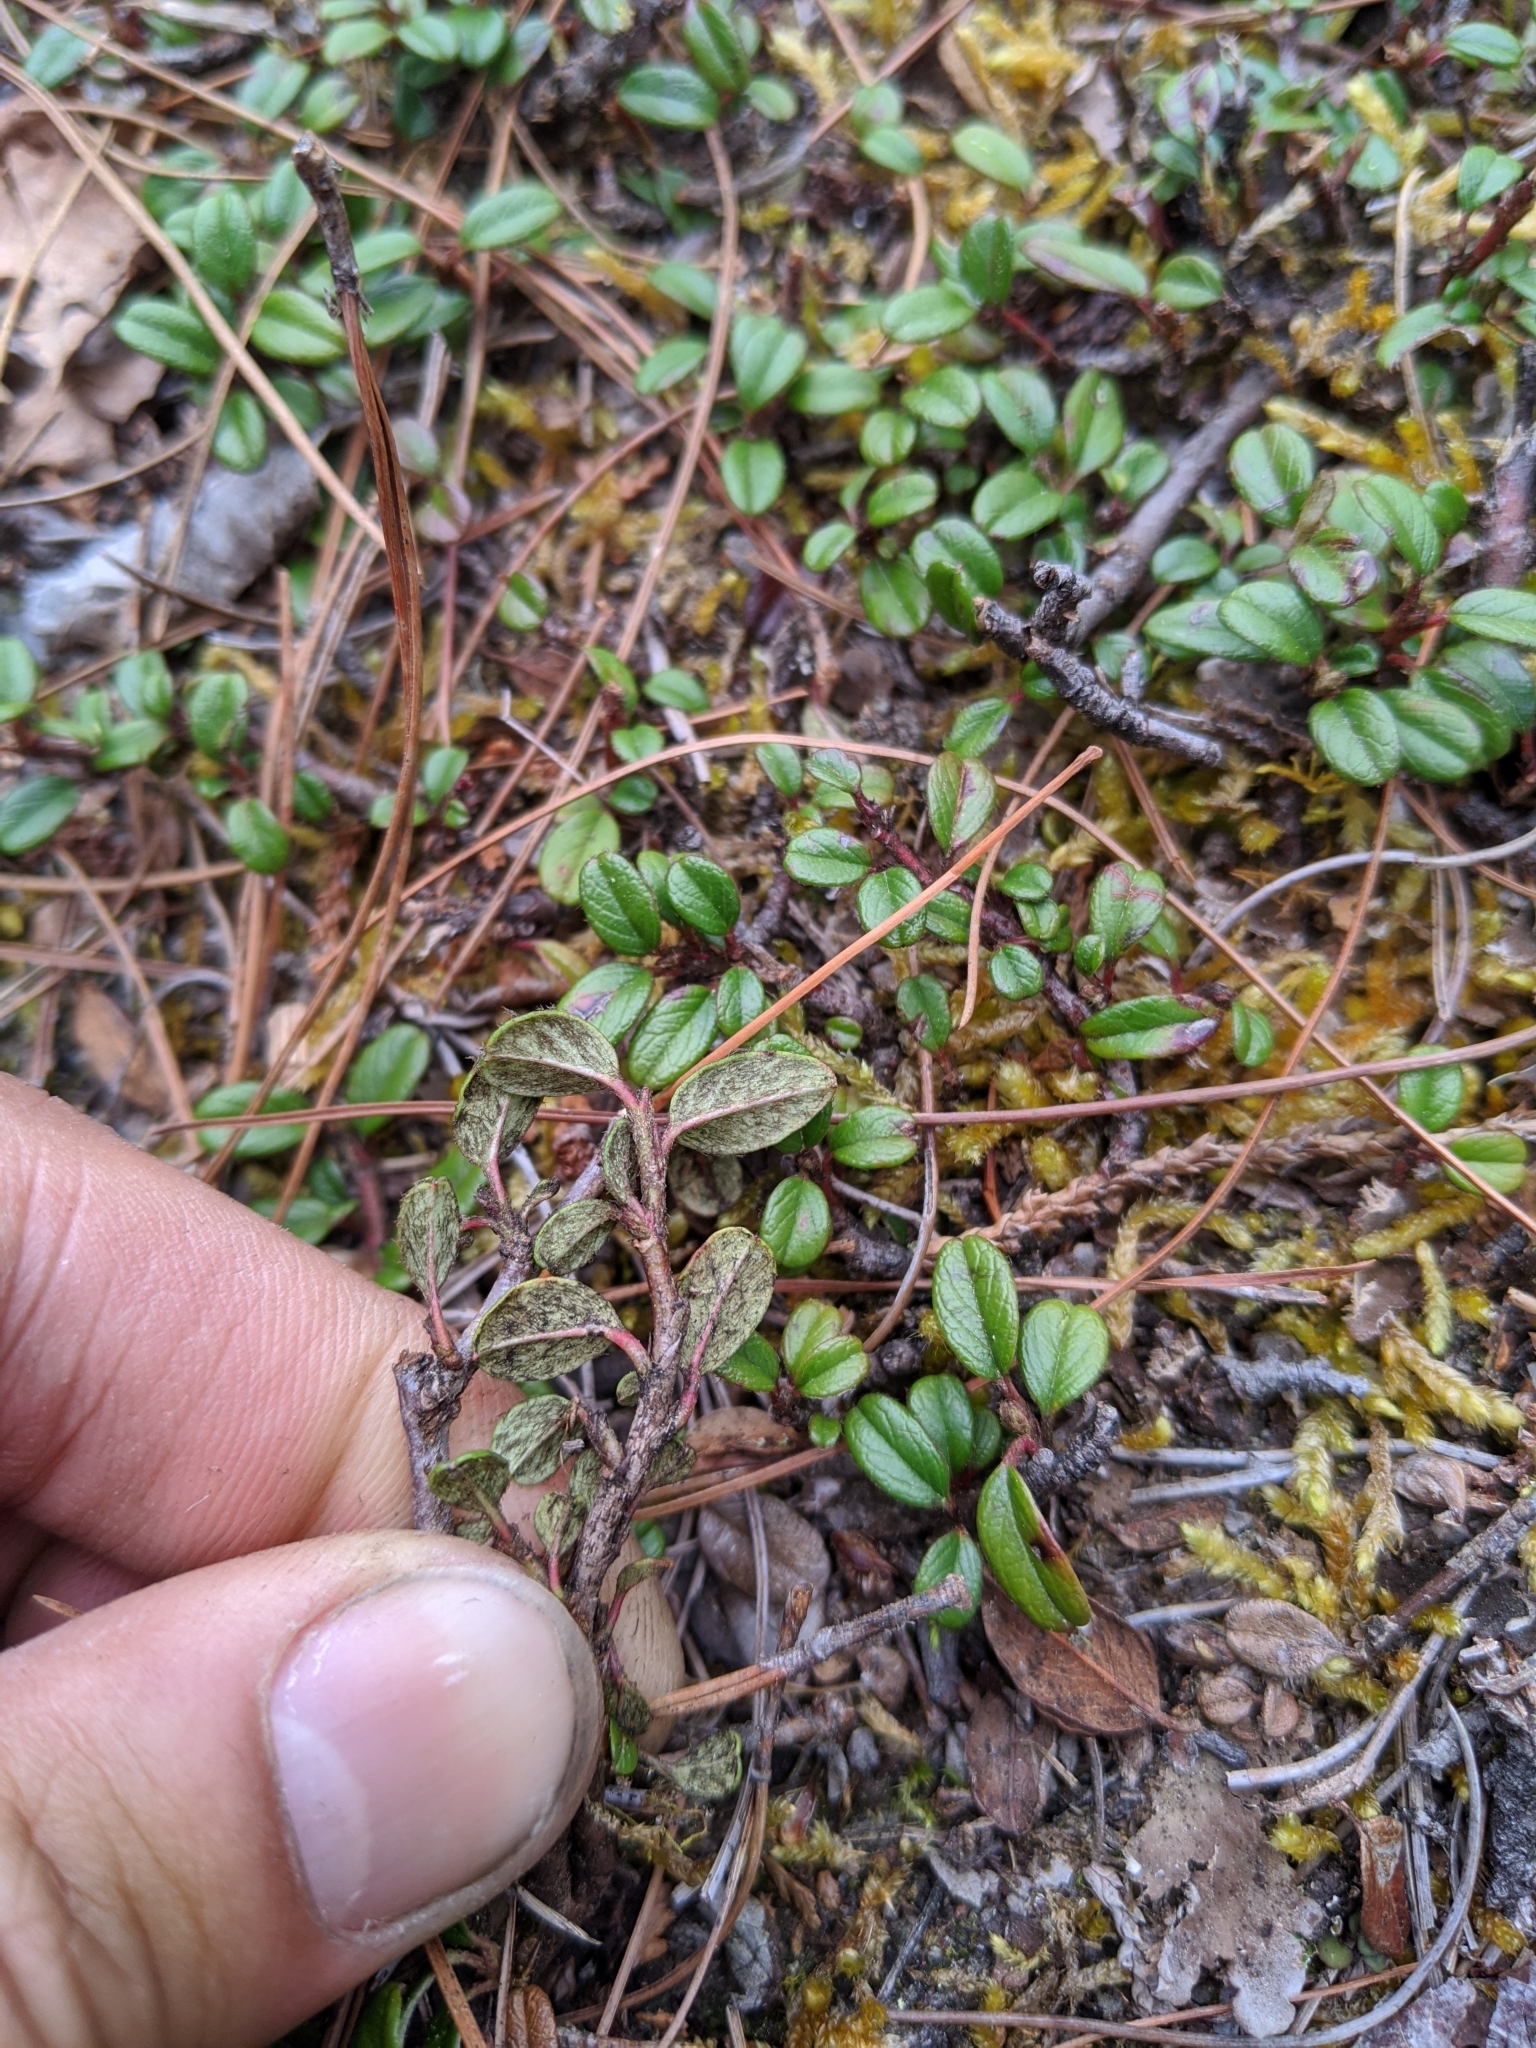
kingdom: Plantae
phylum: Tracheophyta
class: Magnoliopsida
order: Rosales
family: Rosaceae
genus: Cotoneaster
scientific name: Cotoneaster morrisonensis
